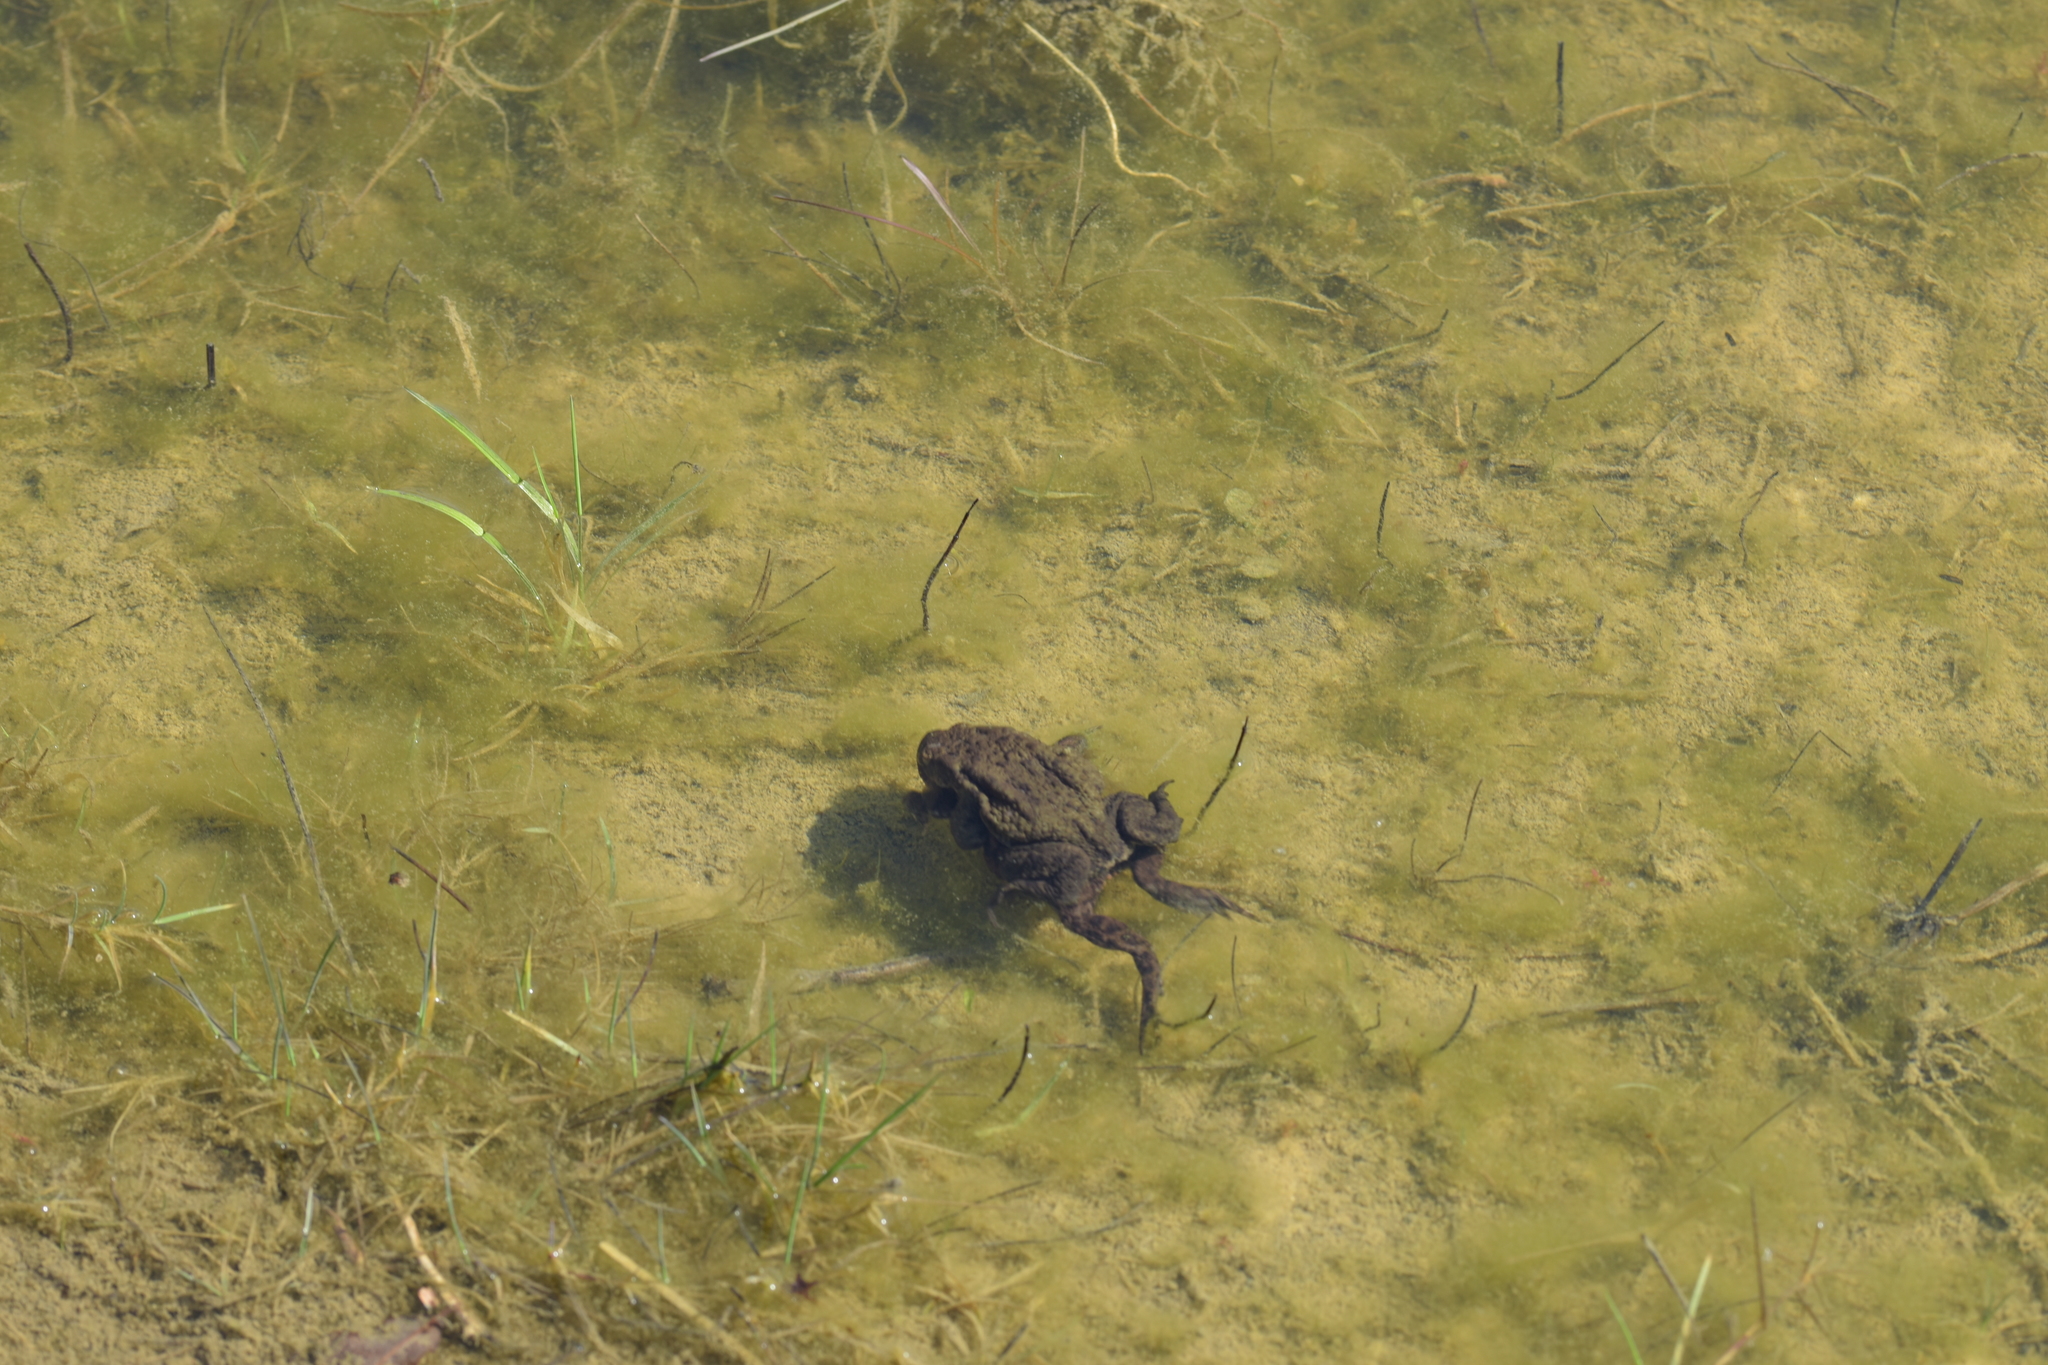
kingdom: Animalia
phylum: Chordata
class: Amphibia
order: Anura
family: Bufonidae
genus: Bufo
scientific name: Bufo bufo
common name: Common toad
